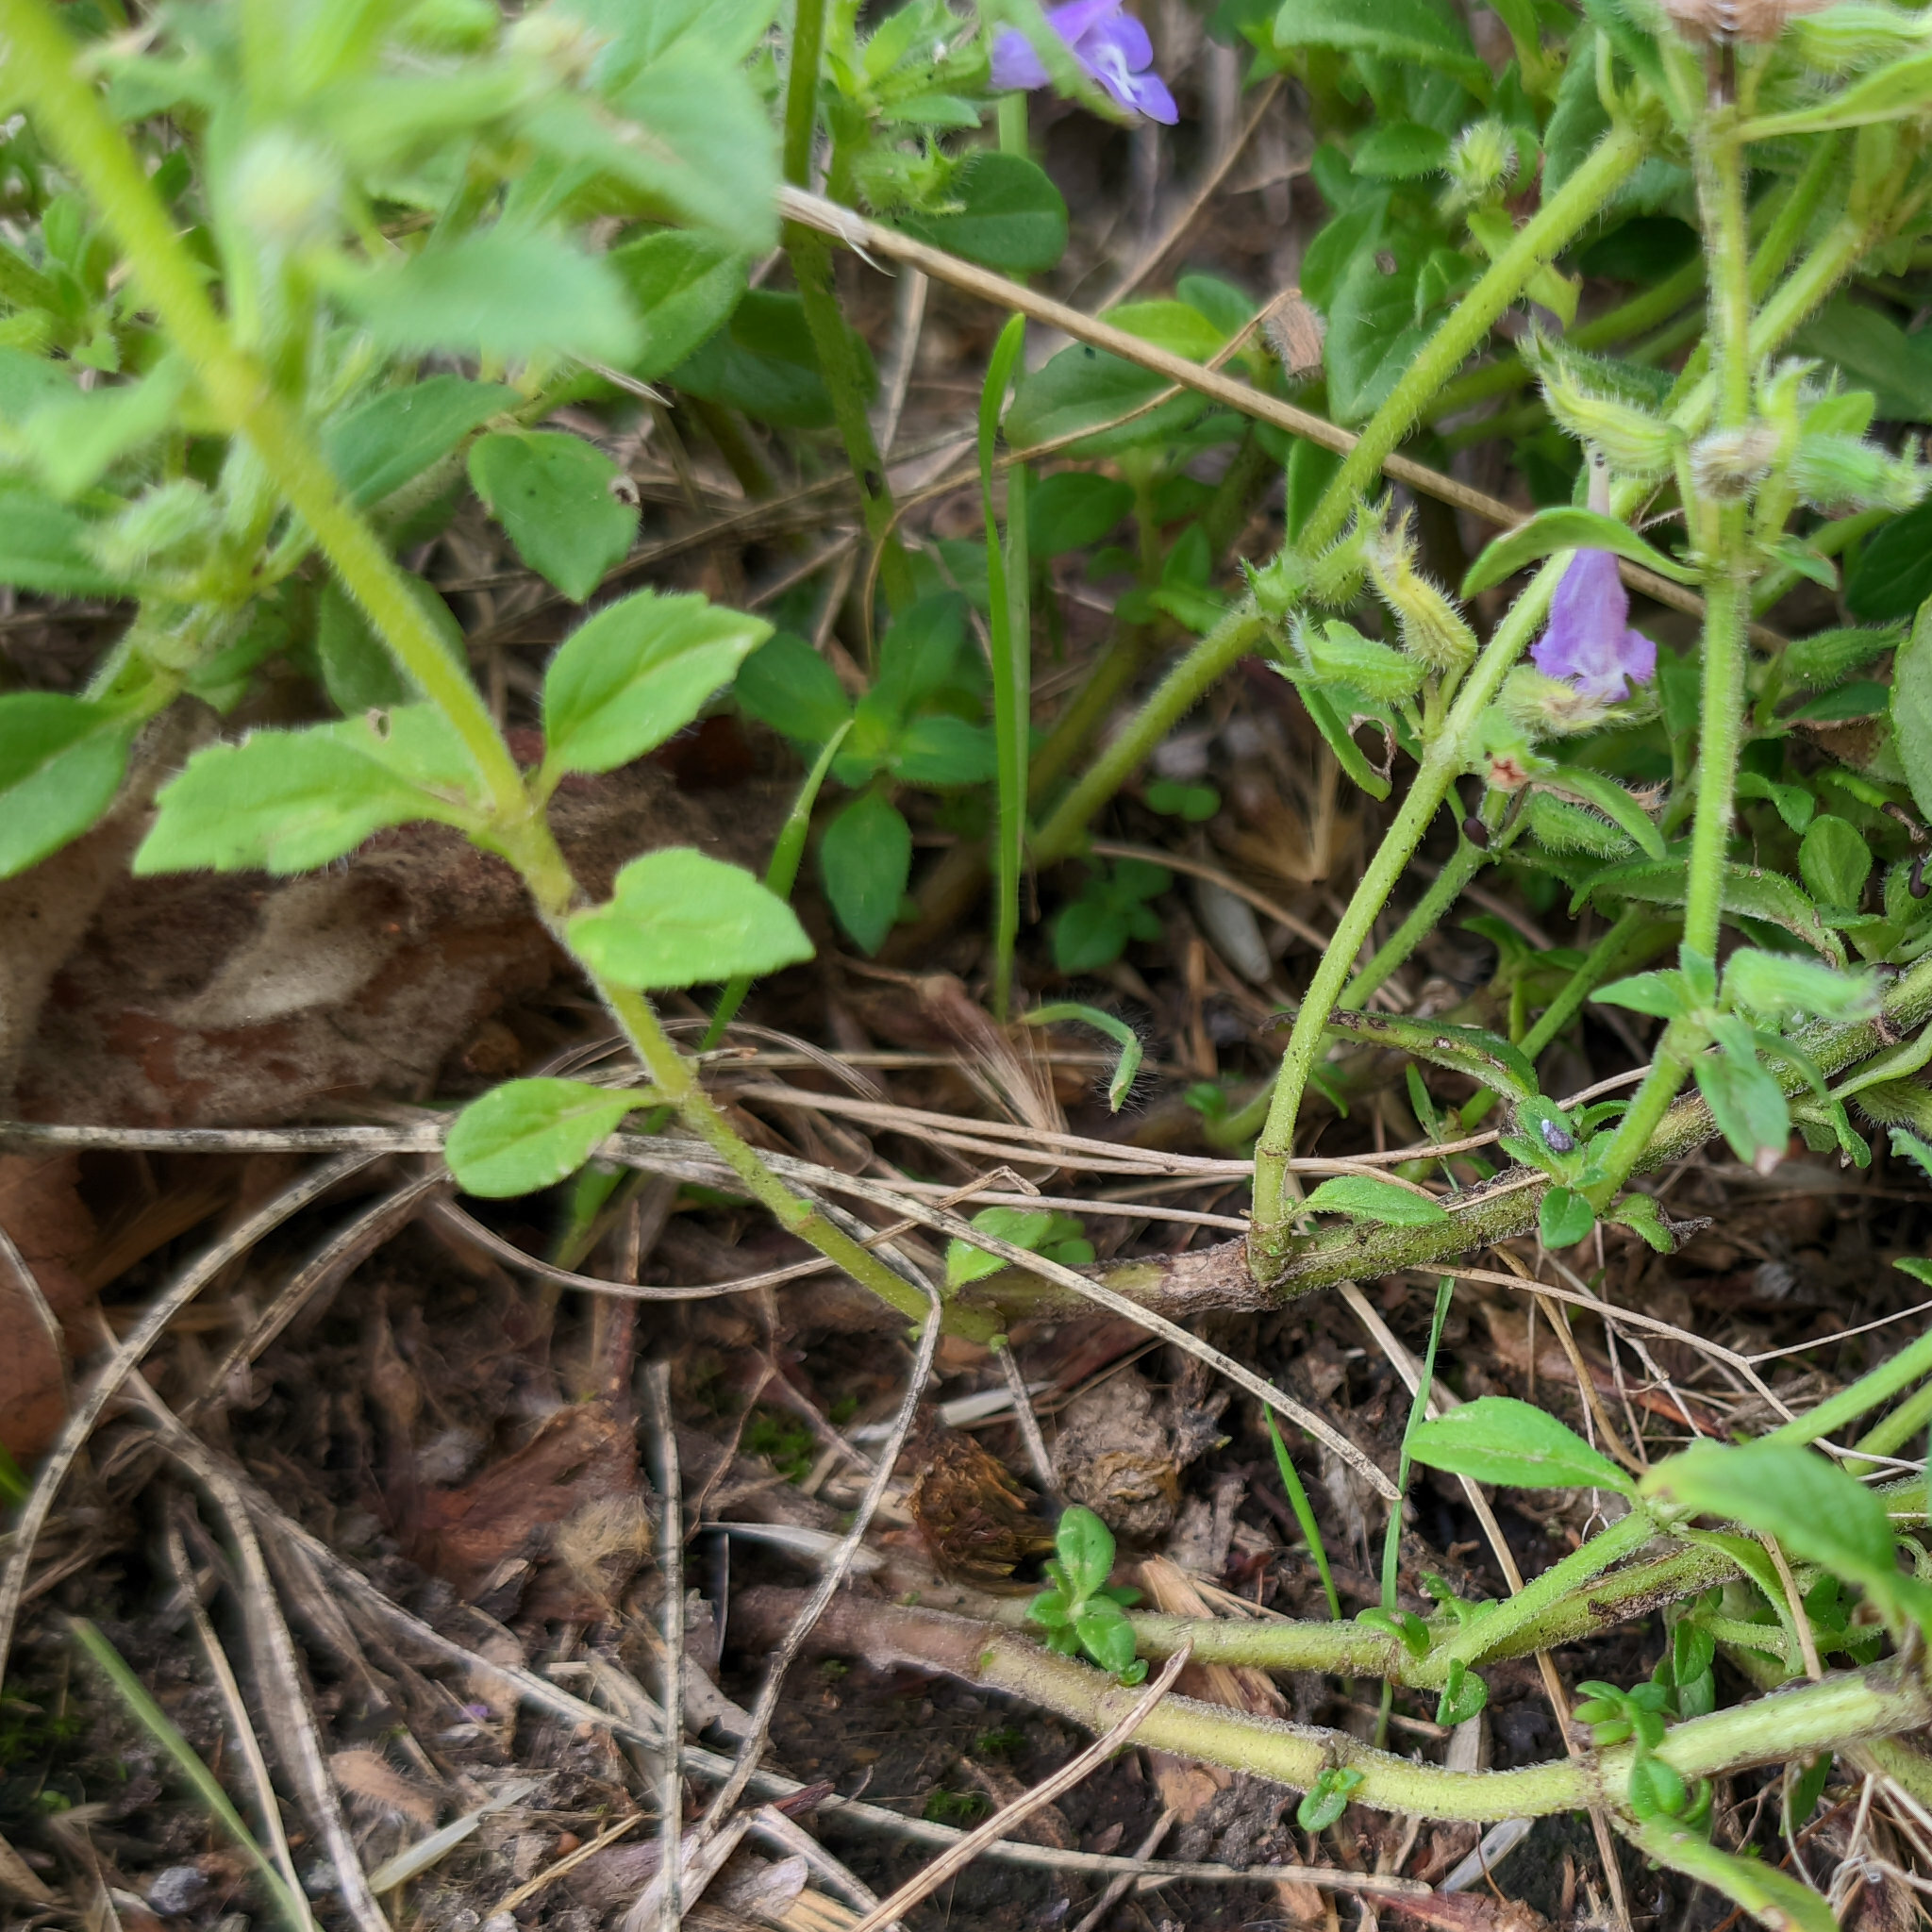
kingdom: Plantae
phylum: Tracheophyta
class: Magnoliopsida
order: Lamiales
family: Lamiaceae
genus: Clinopodium
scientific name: Clinopodium acinos
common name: Basil thyme
